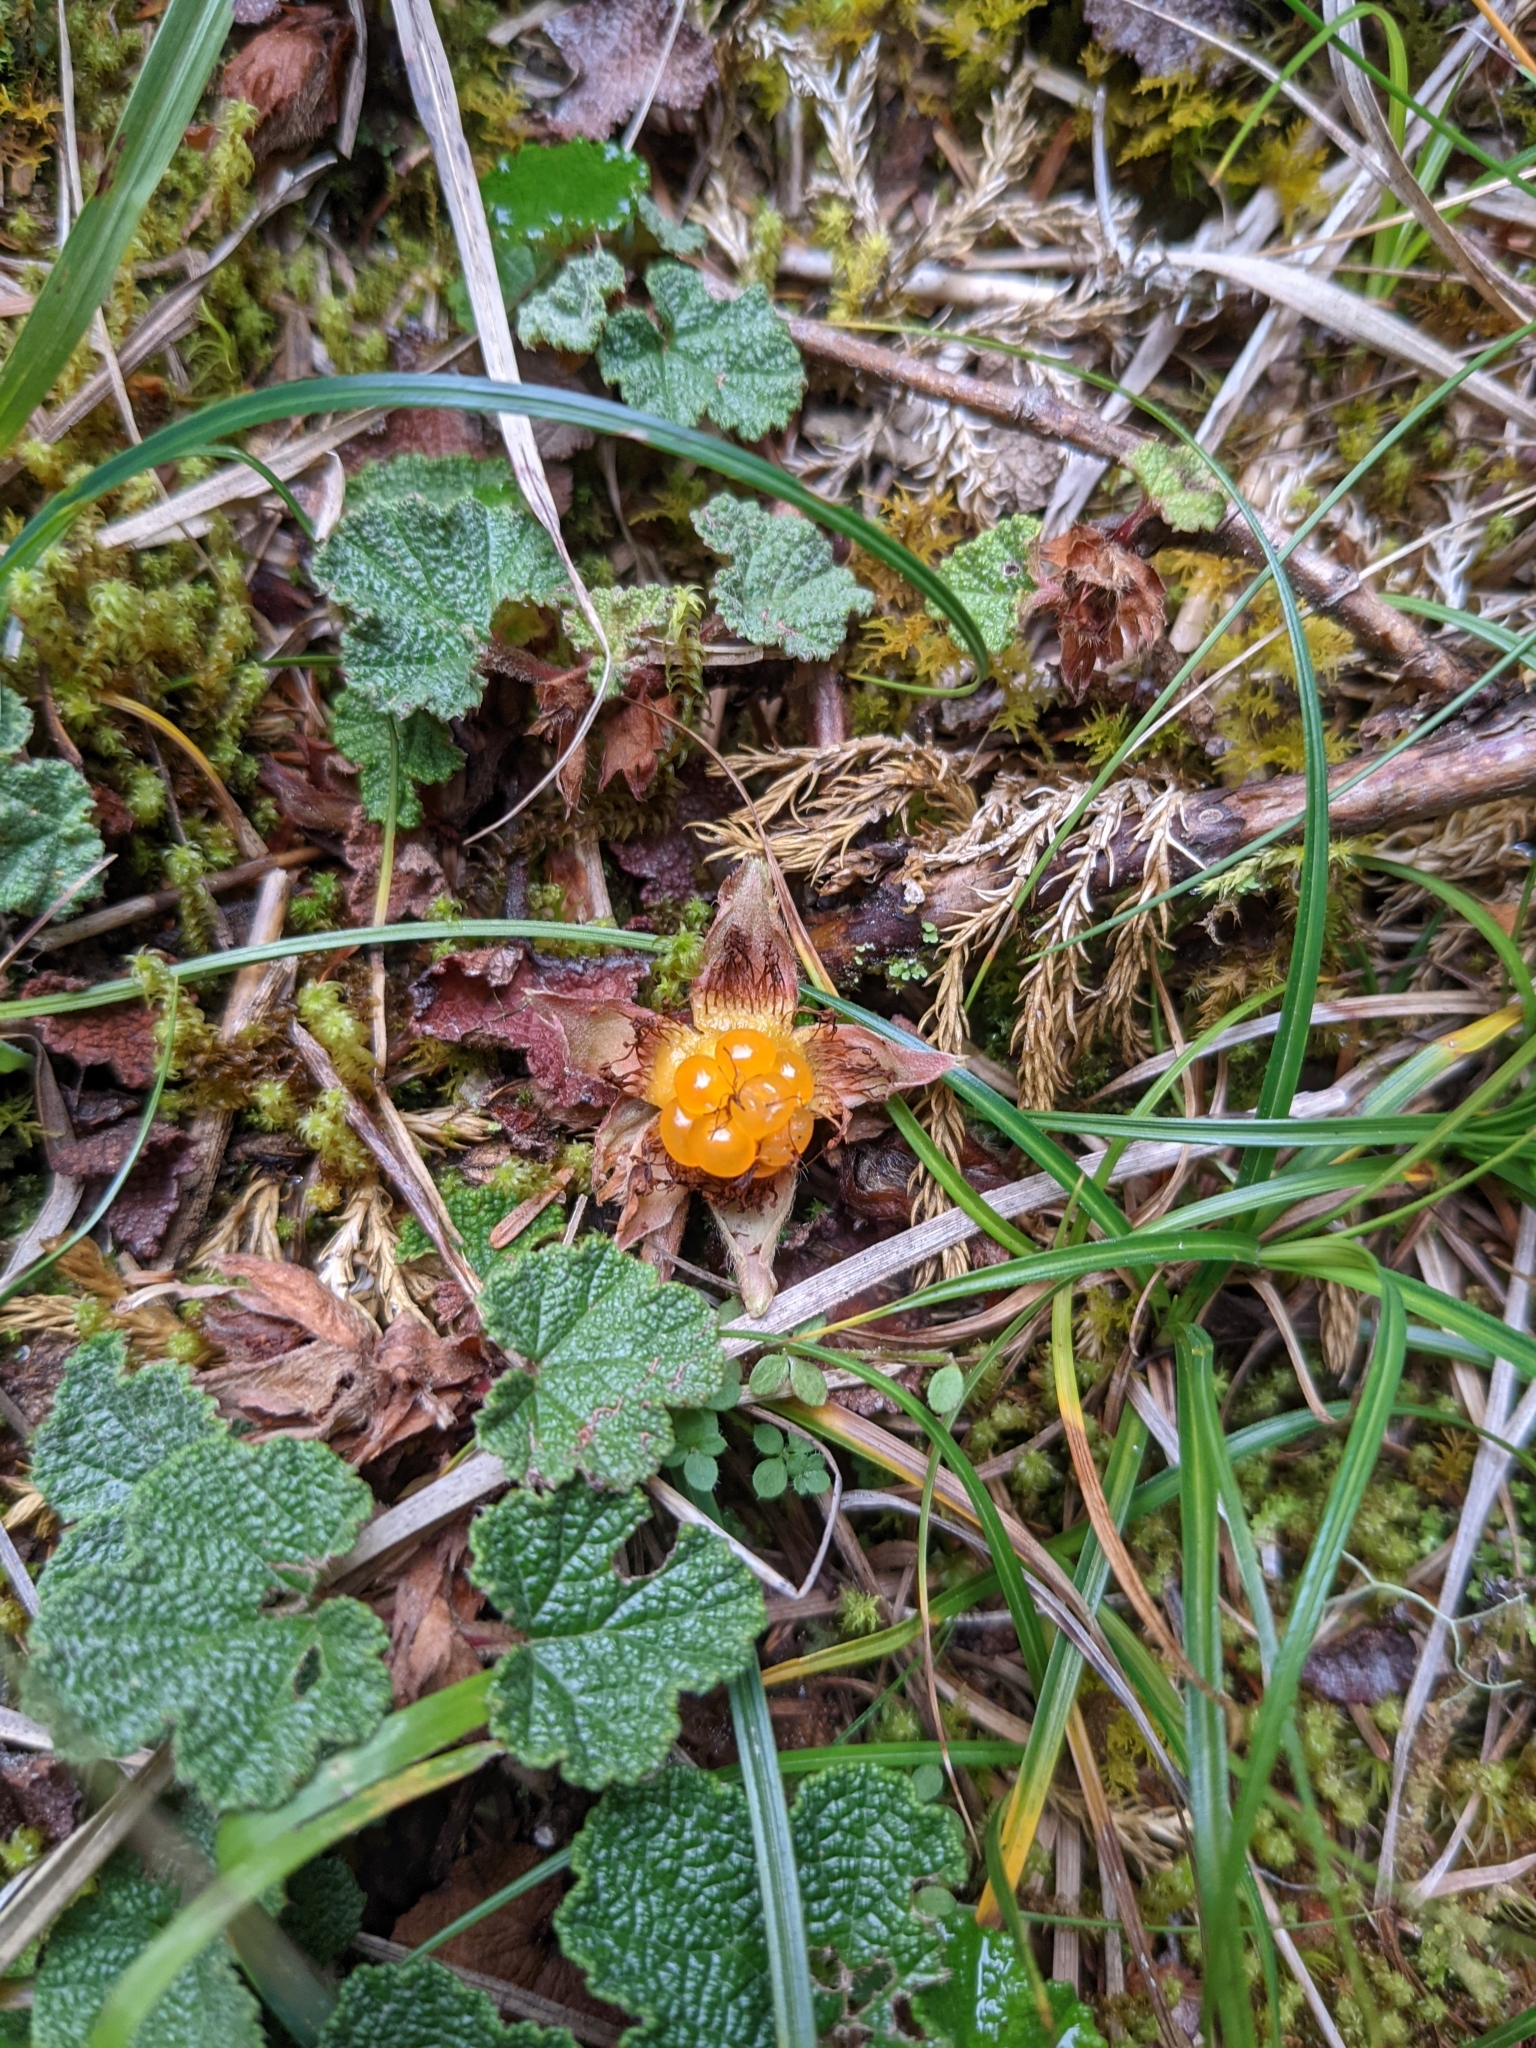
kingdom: Plantae
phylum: Tracheophyta
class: Magnoliopsida
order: Rosales
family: Rosaceae
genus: Rubus
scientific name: Rubus rolfei
